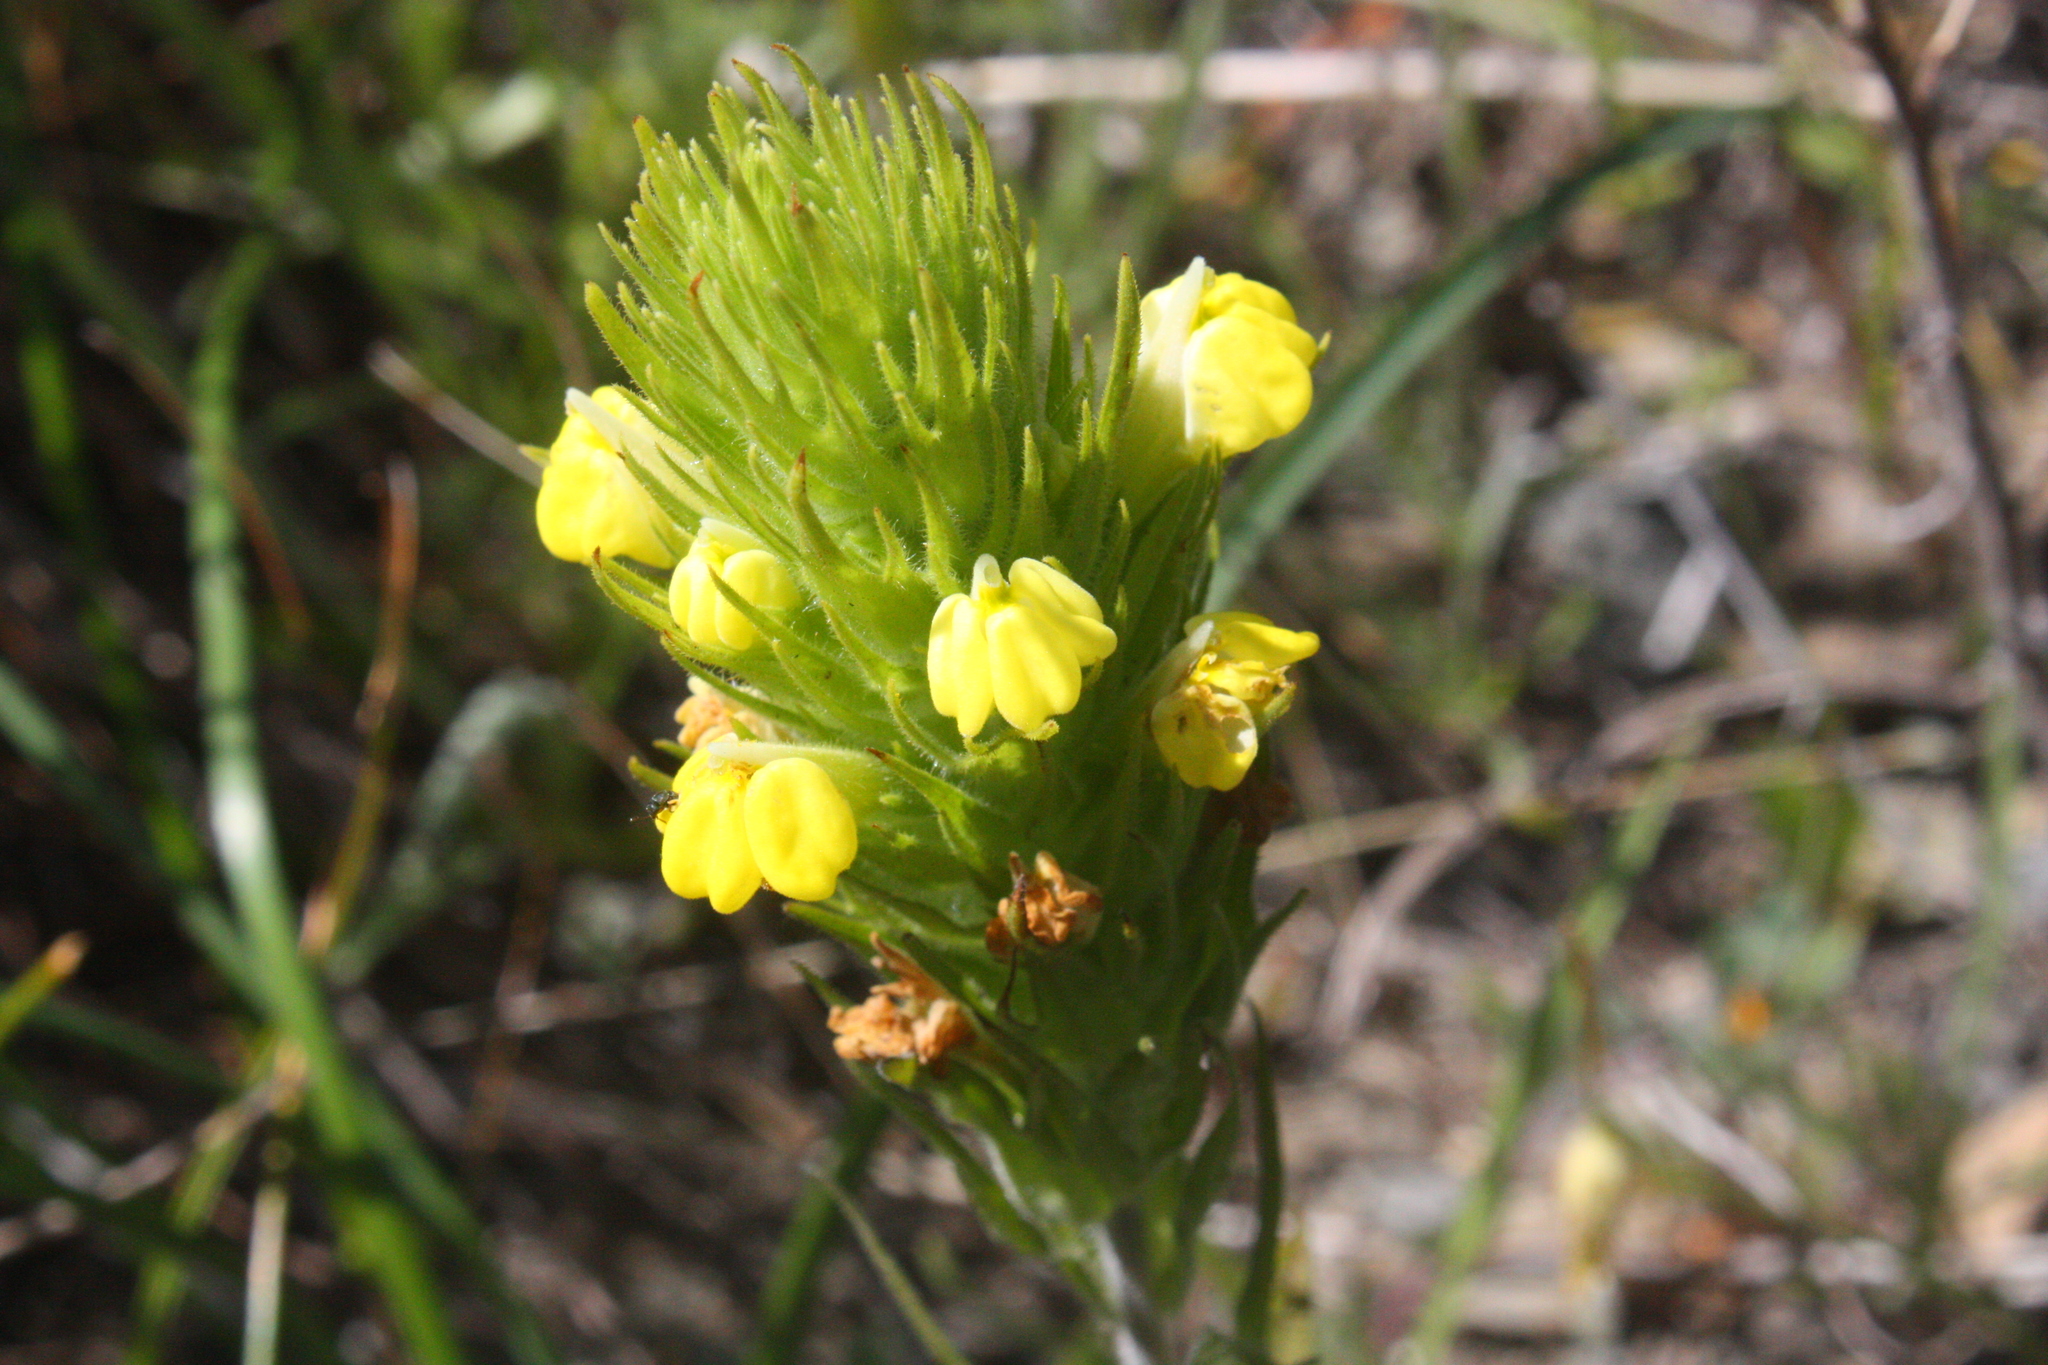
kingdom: Plantae
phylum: Tracheophyta
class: Magnoliopsida
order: Lamiales
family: Orobanchaceae
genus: Castilleja
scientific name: Castilleja rubicundula
